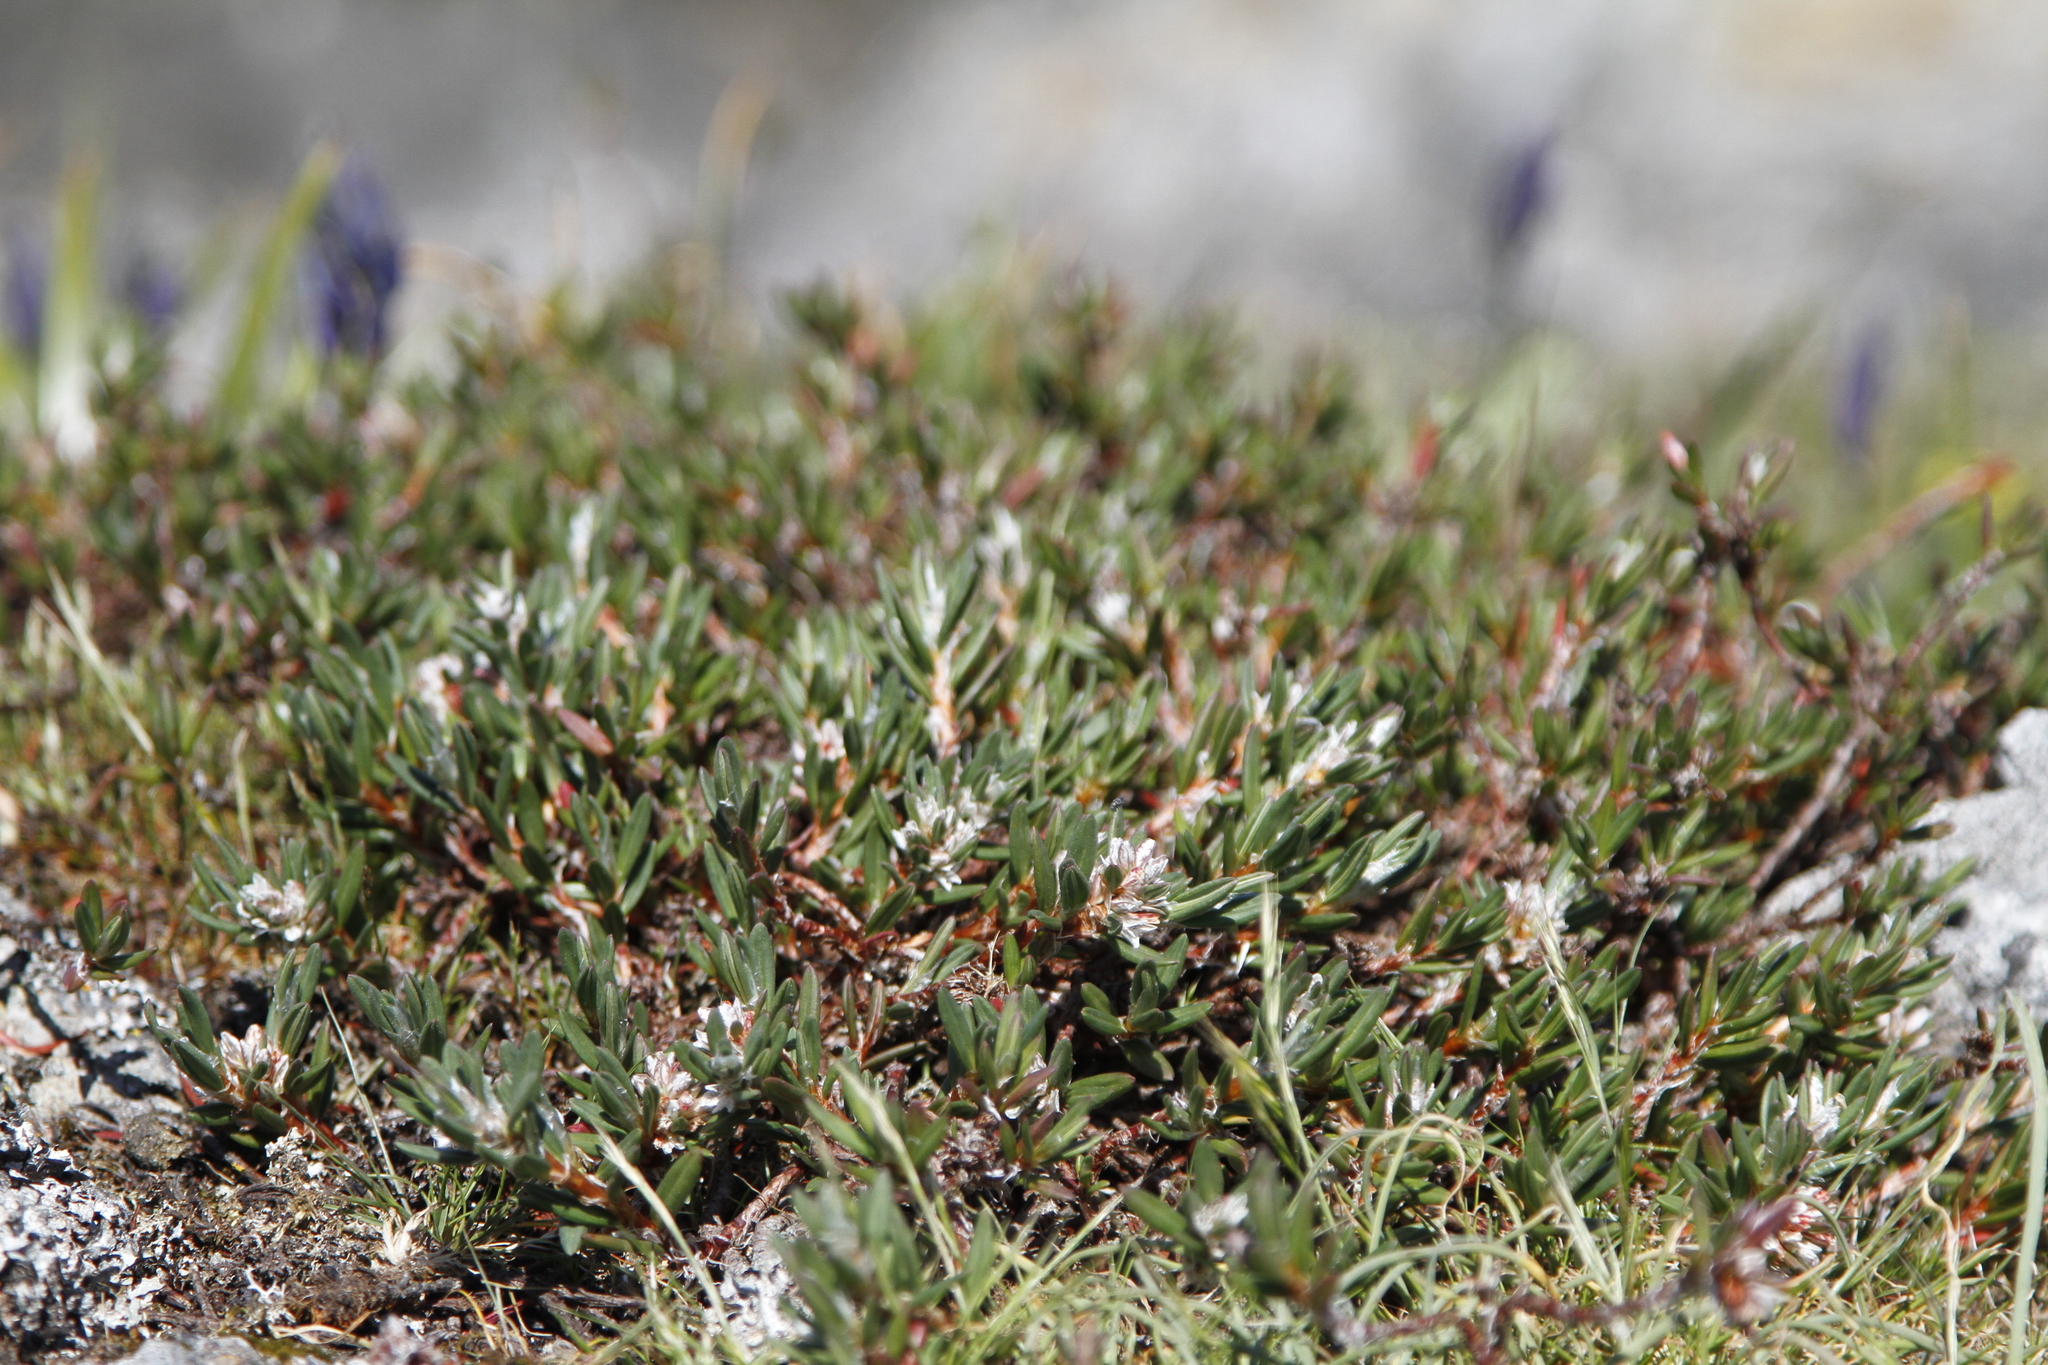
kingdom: Plantae
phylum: Tracheophyta
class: Magnoliopsida
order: Caryophyllales
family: Polygonaceae
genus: Polygonum
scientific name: Polygonum paronychia
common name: Dune knotweed
